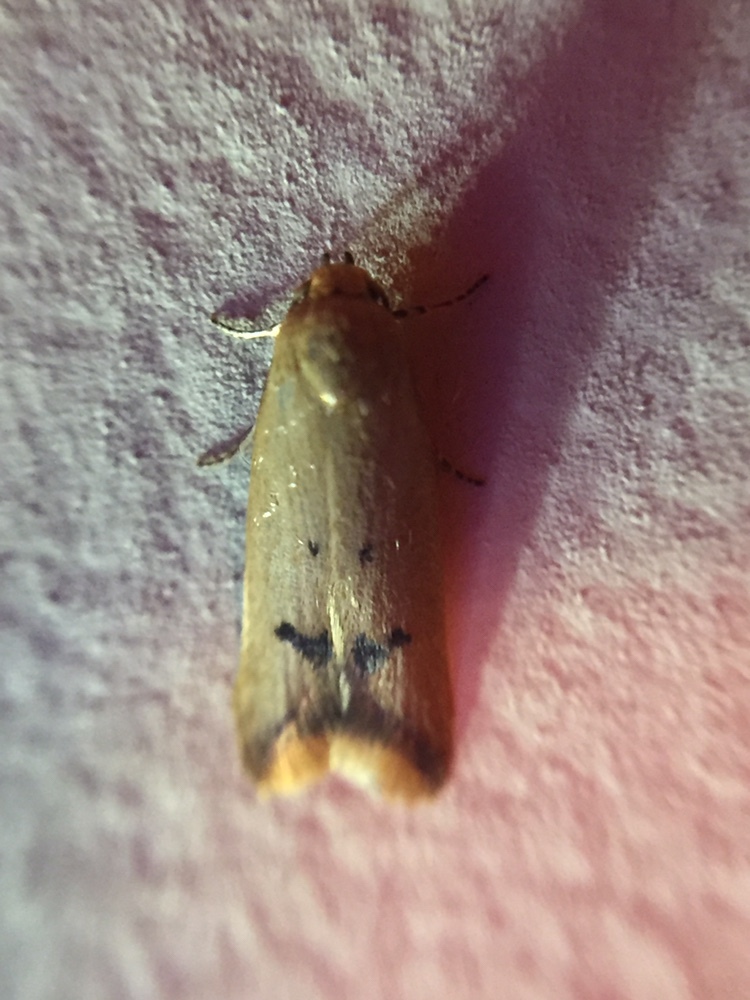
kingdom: Animalia
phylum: Arthropoda
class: Insecta
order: Lepidoptera
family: Oecophoridae
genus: Tachystola
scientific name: Tachystola hemisema
